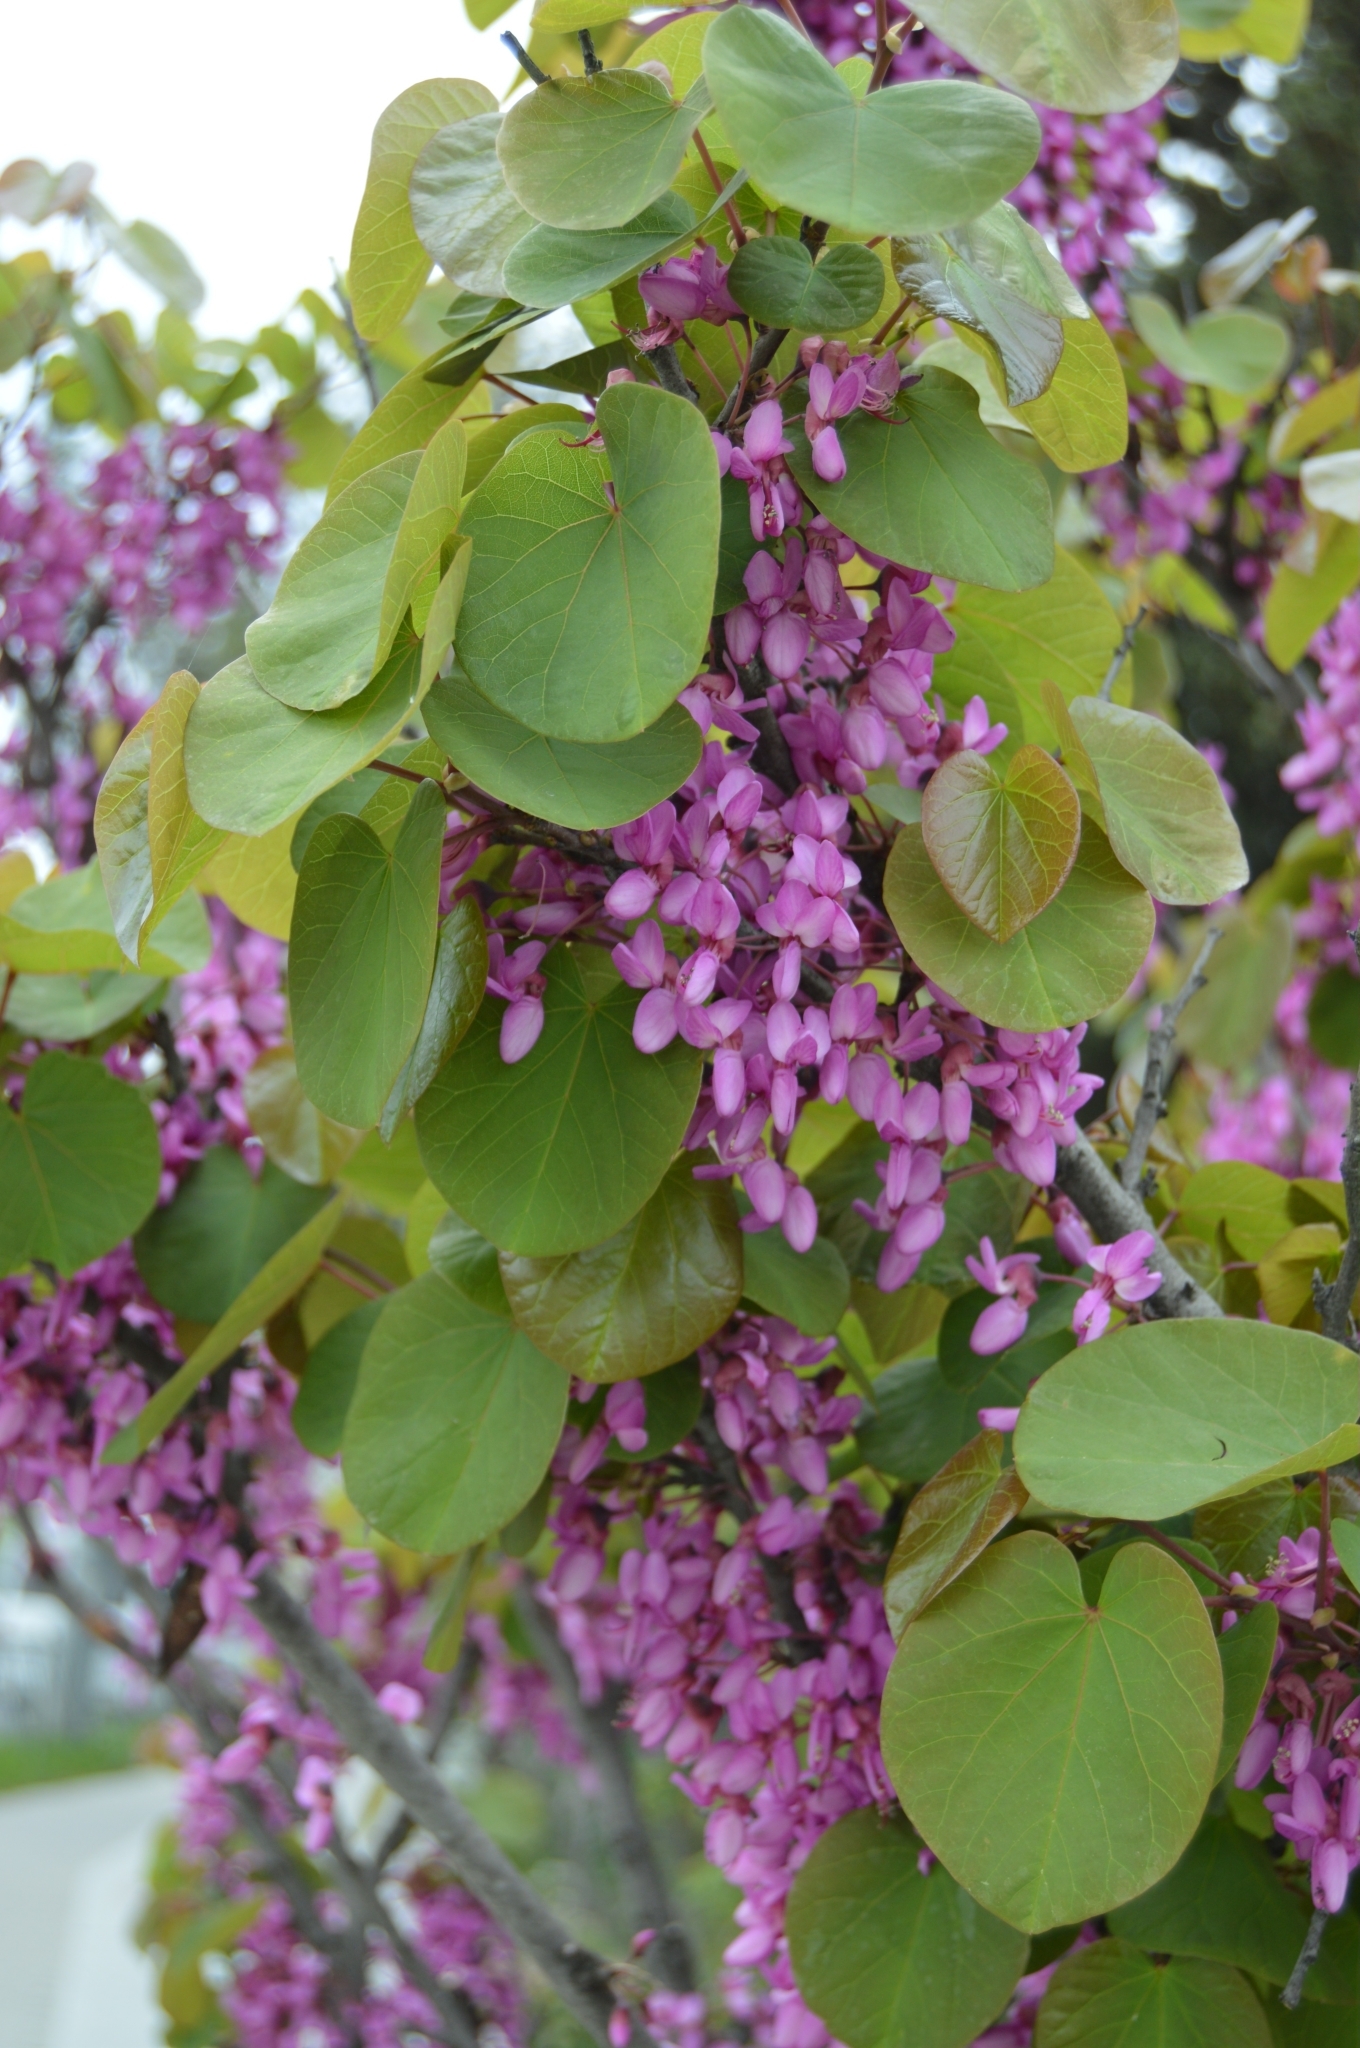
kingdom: Plantae
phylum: Tracheophyta
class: Magnoliopsida
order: Fabales
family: Fabaceae
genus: Cercis
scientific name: Cercis siliquastrum
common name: Judas tree
